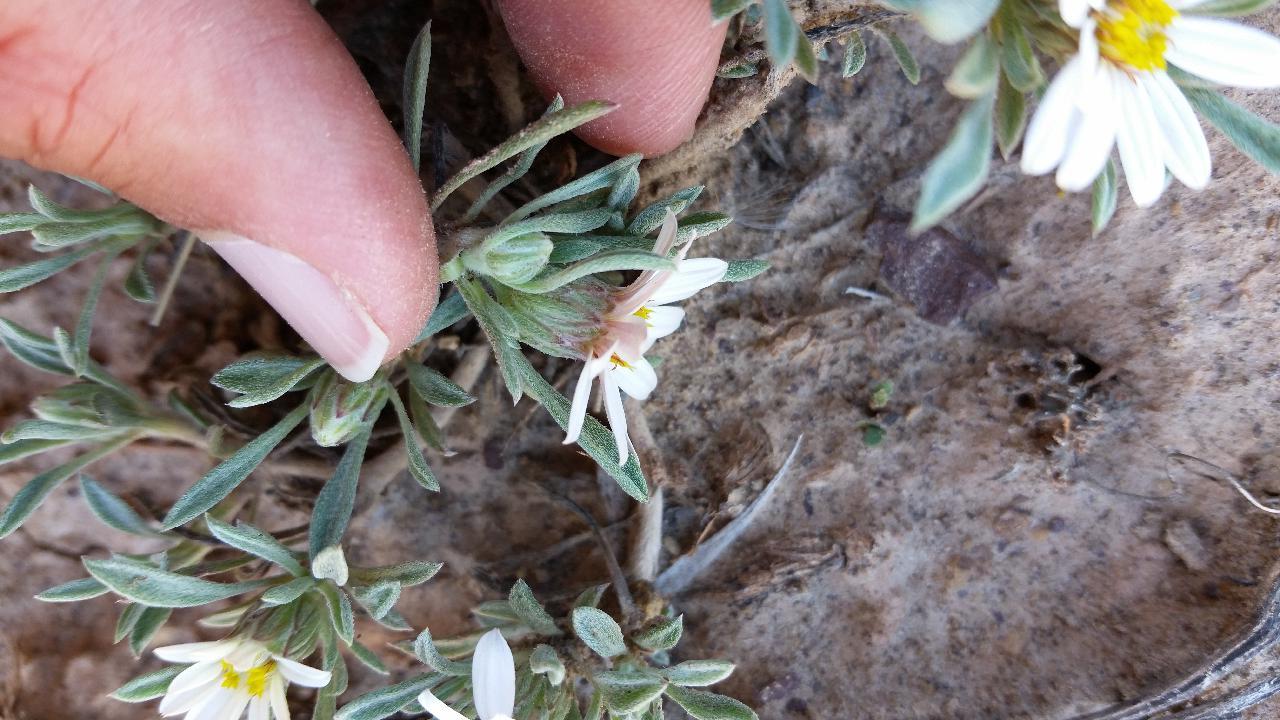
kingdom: Plantae
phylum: Tracheophyta
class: Magnoliopsida
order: Asterales
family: Asteraceae
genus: Townsendia
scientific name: Townsendia incana
